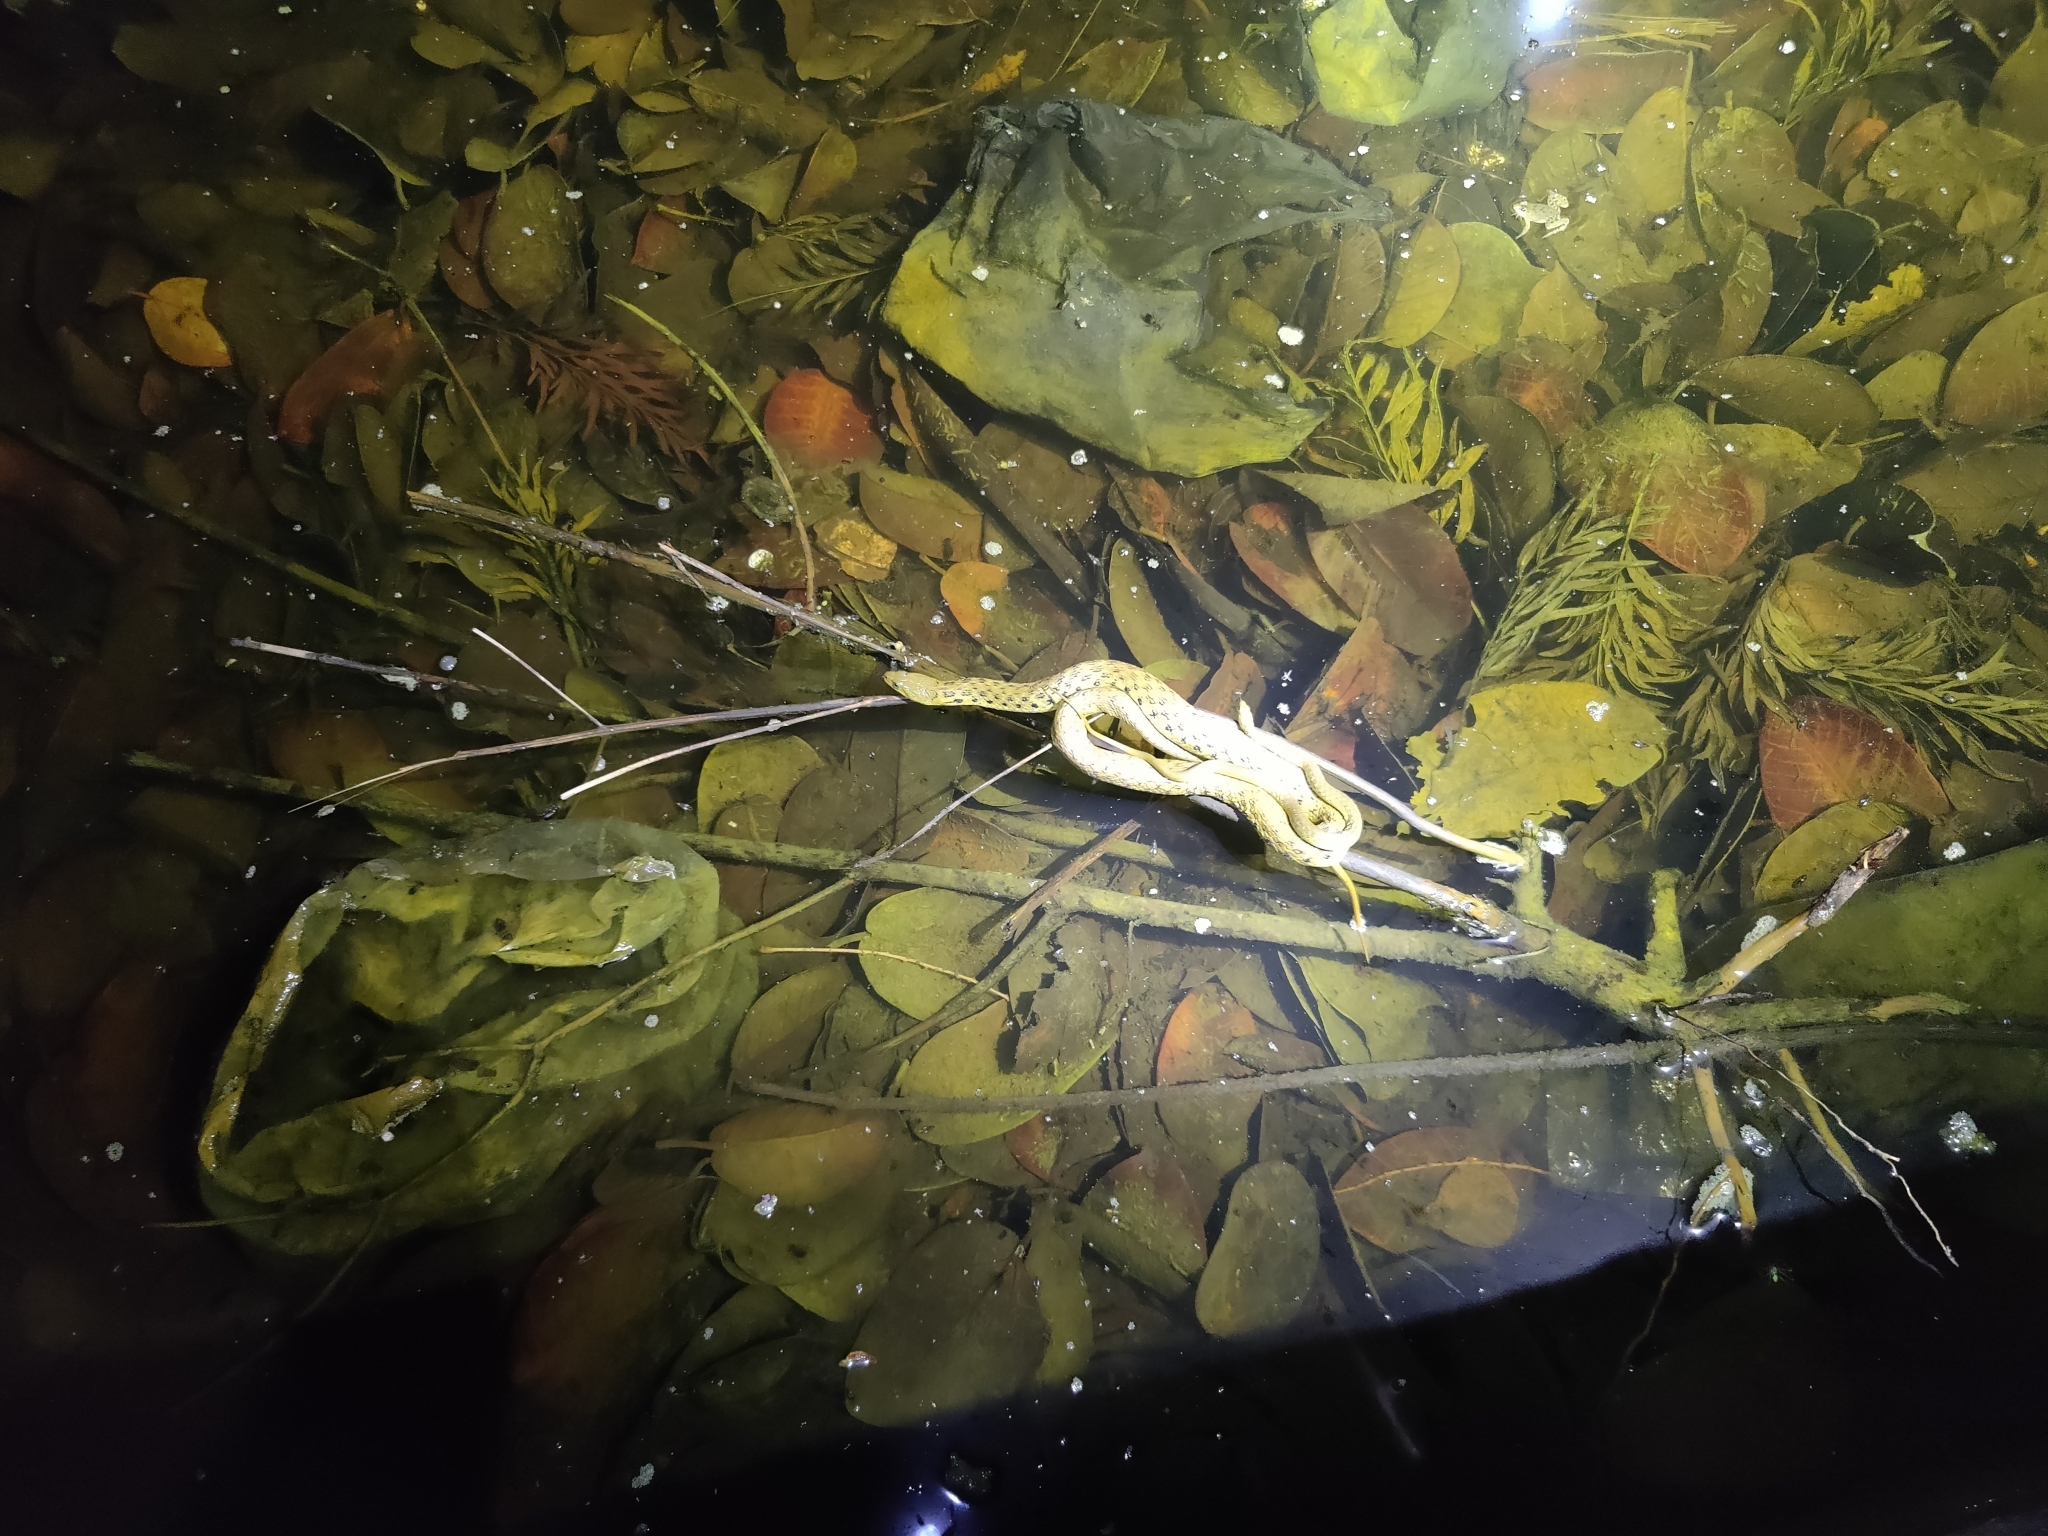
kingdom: Animalia
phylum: Chordata
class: Squamata
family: Colubridae
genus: Fowlea
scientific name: Fowlea piscator
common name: Asiatic water snake
